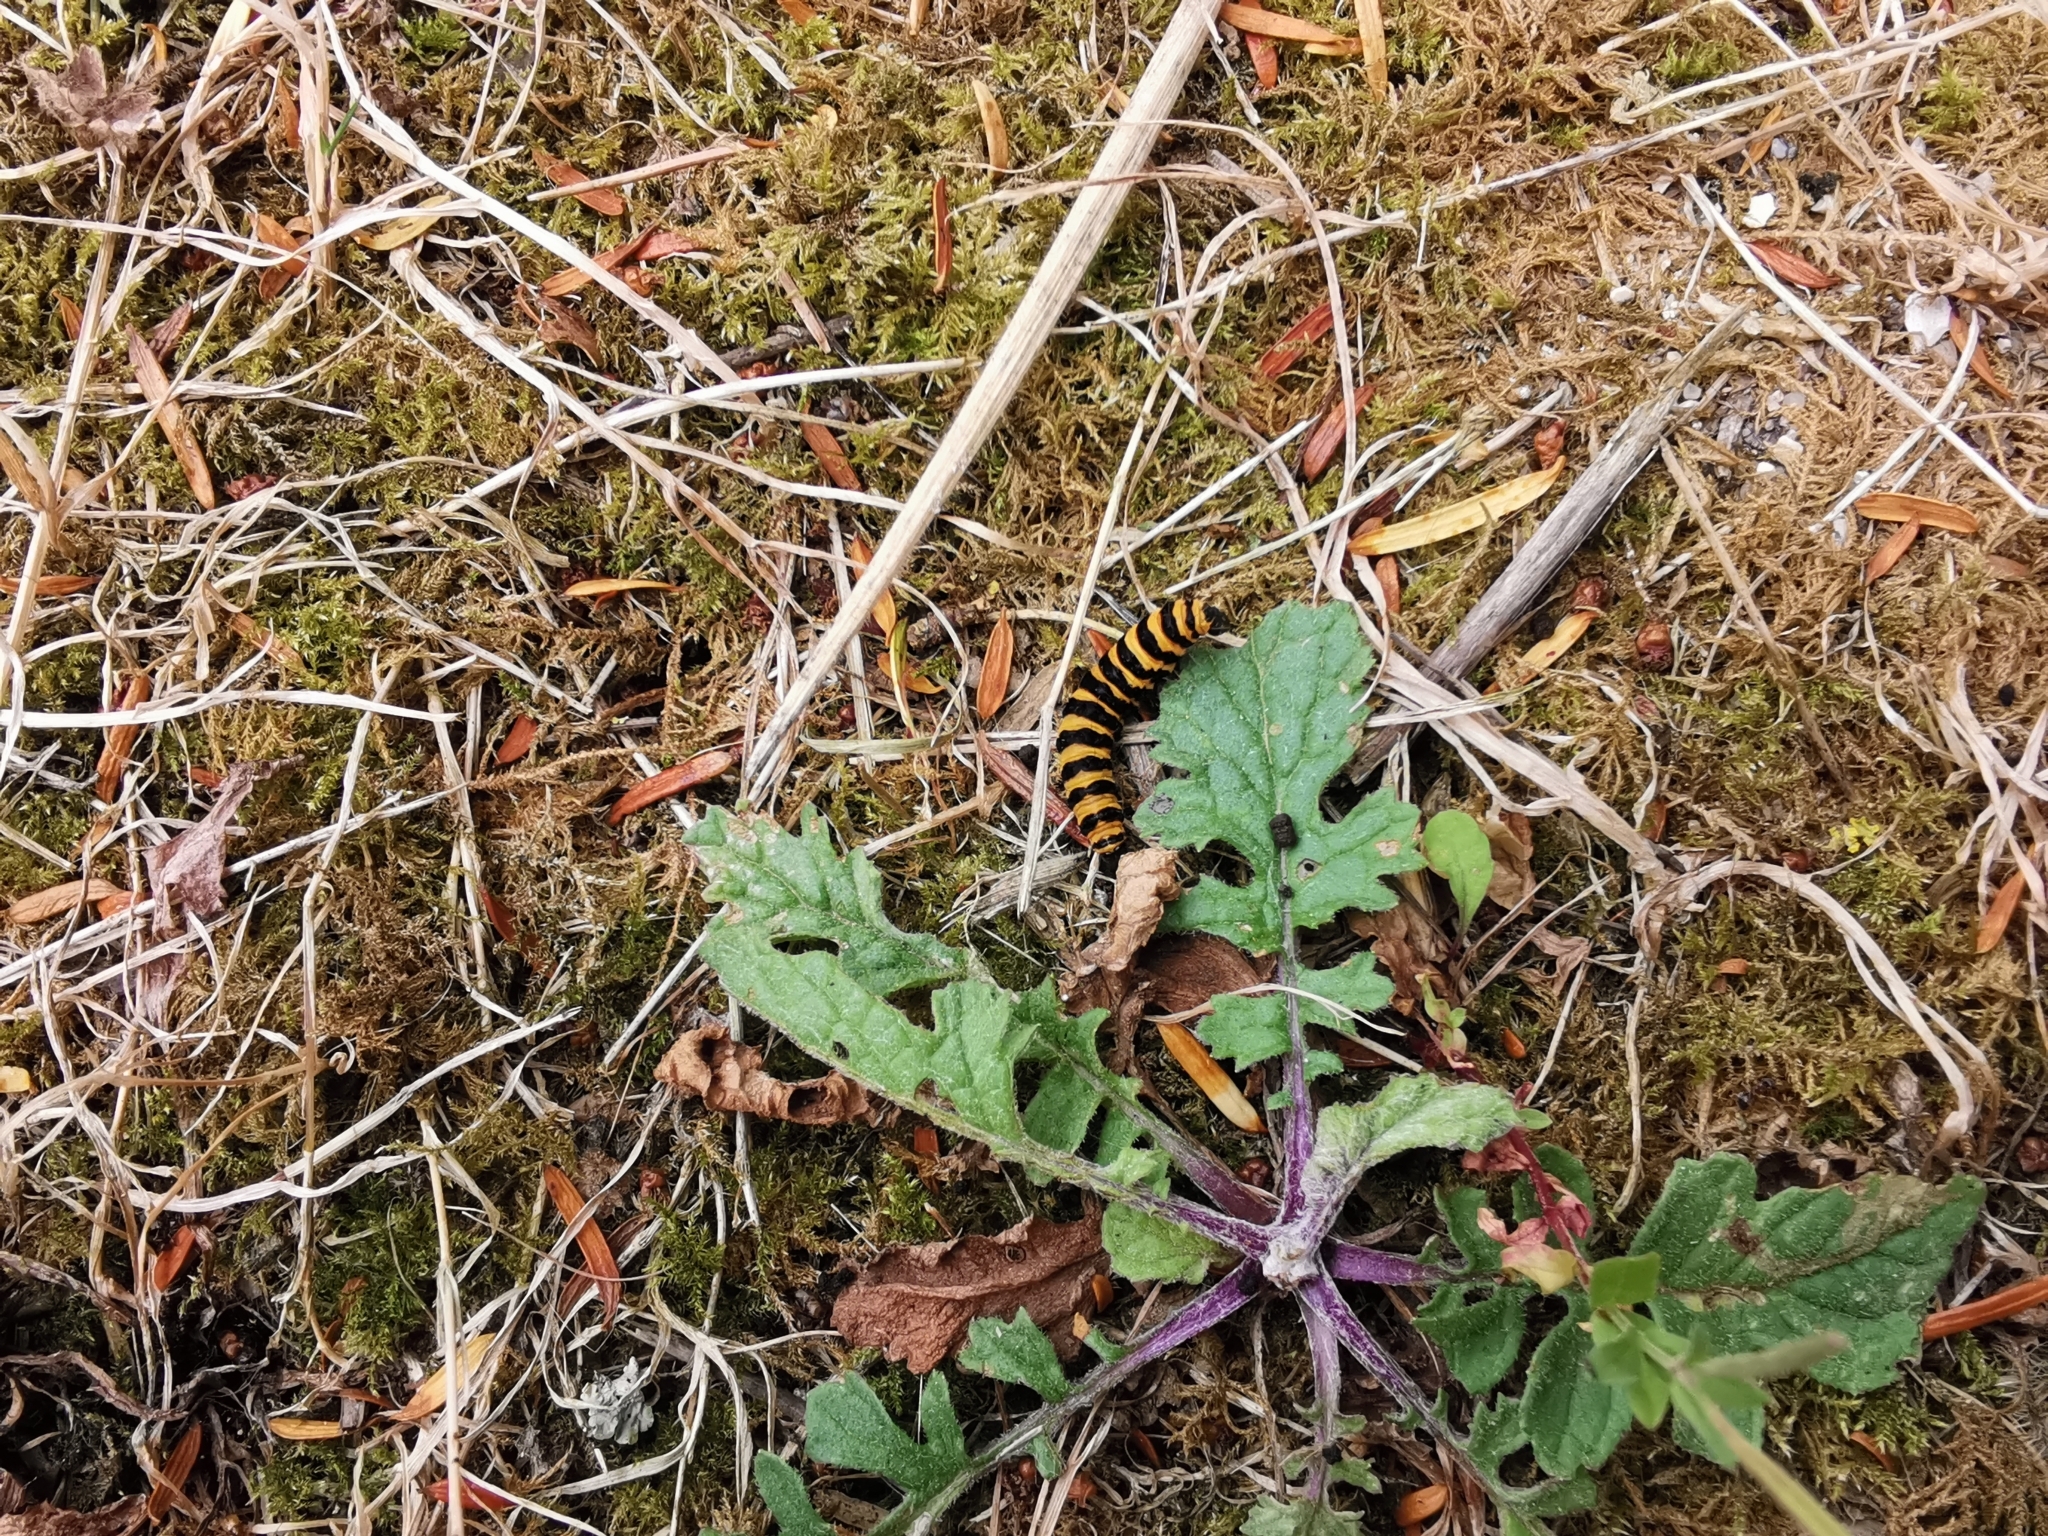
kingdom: Animalia
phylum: Arthropoda
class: Insecta
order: Lepidoptera
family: Erebidae
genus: Tyria
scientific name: Tyria jacobaeae
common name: Cinnabar
